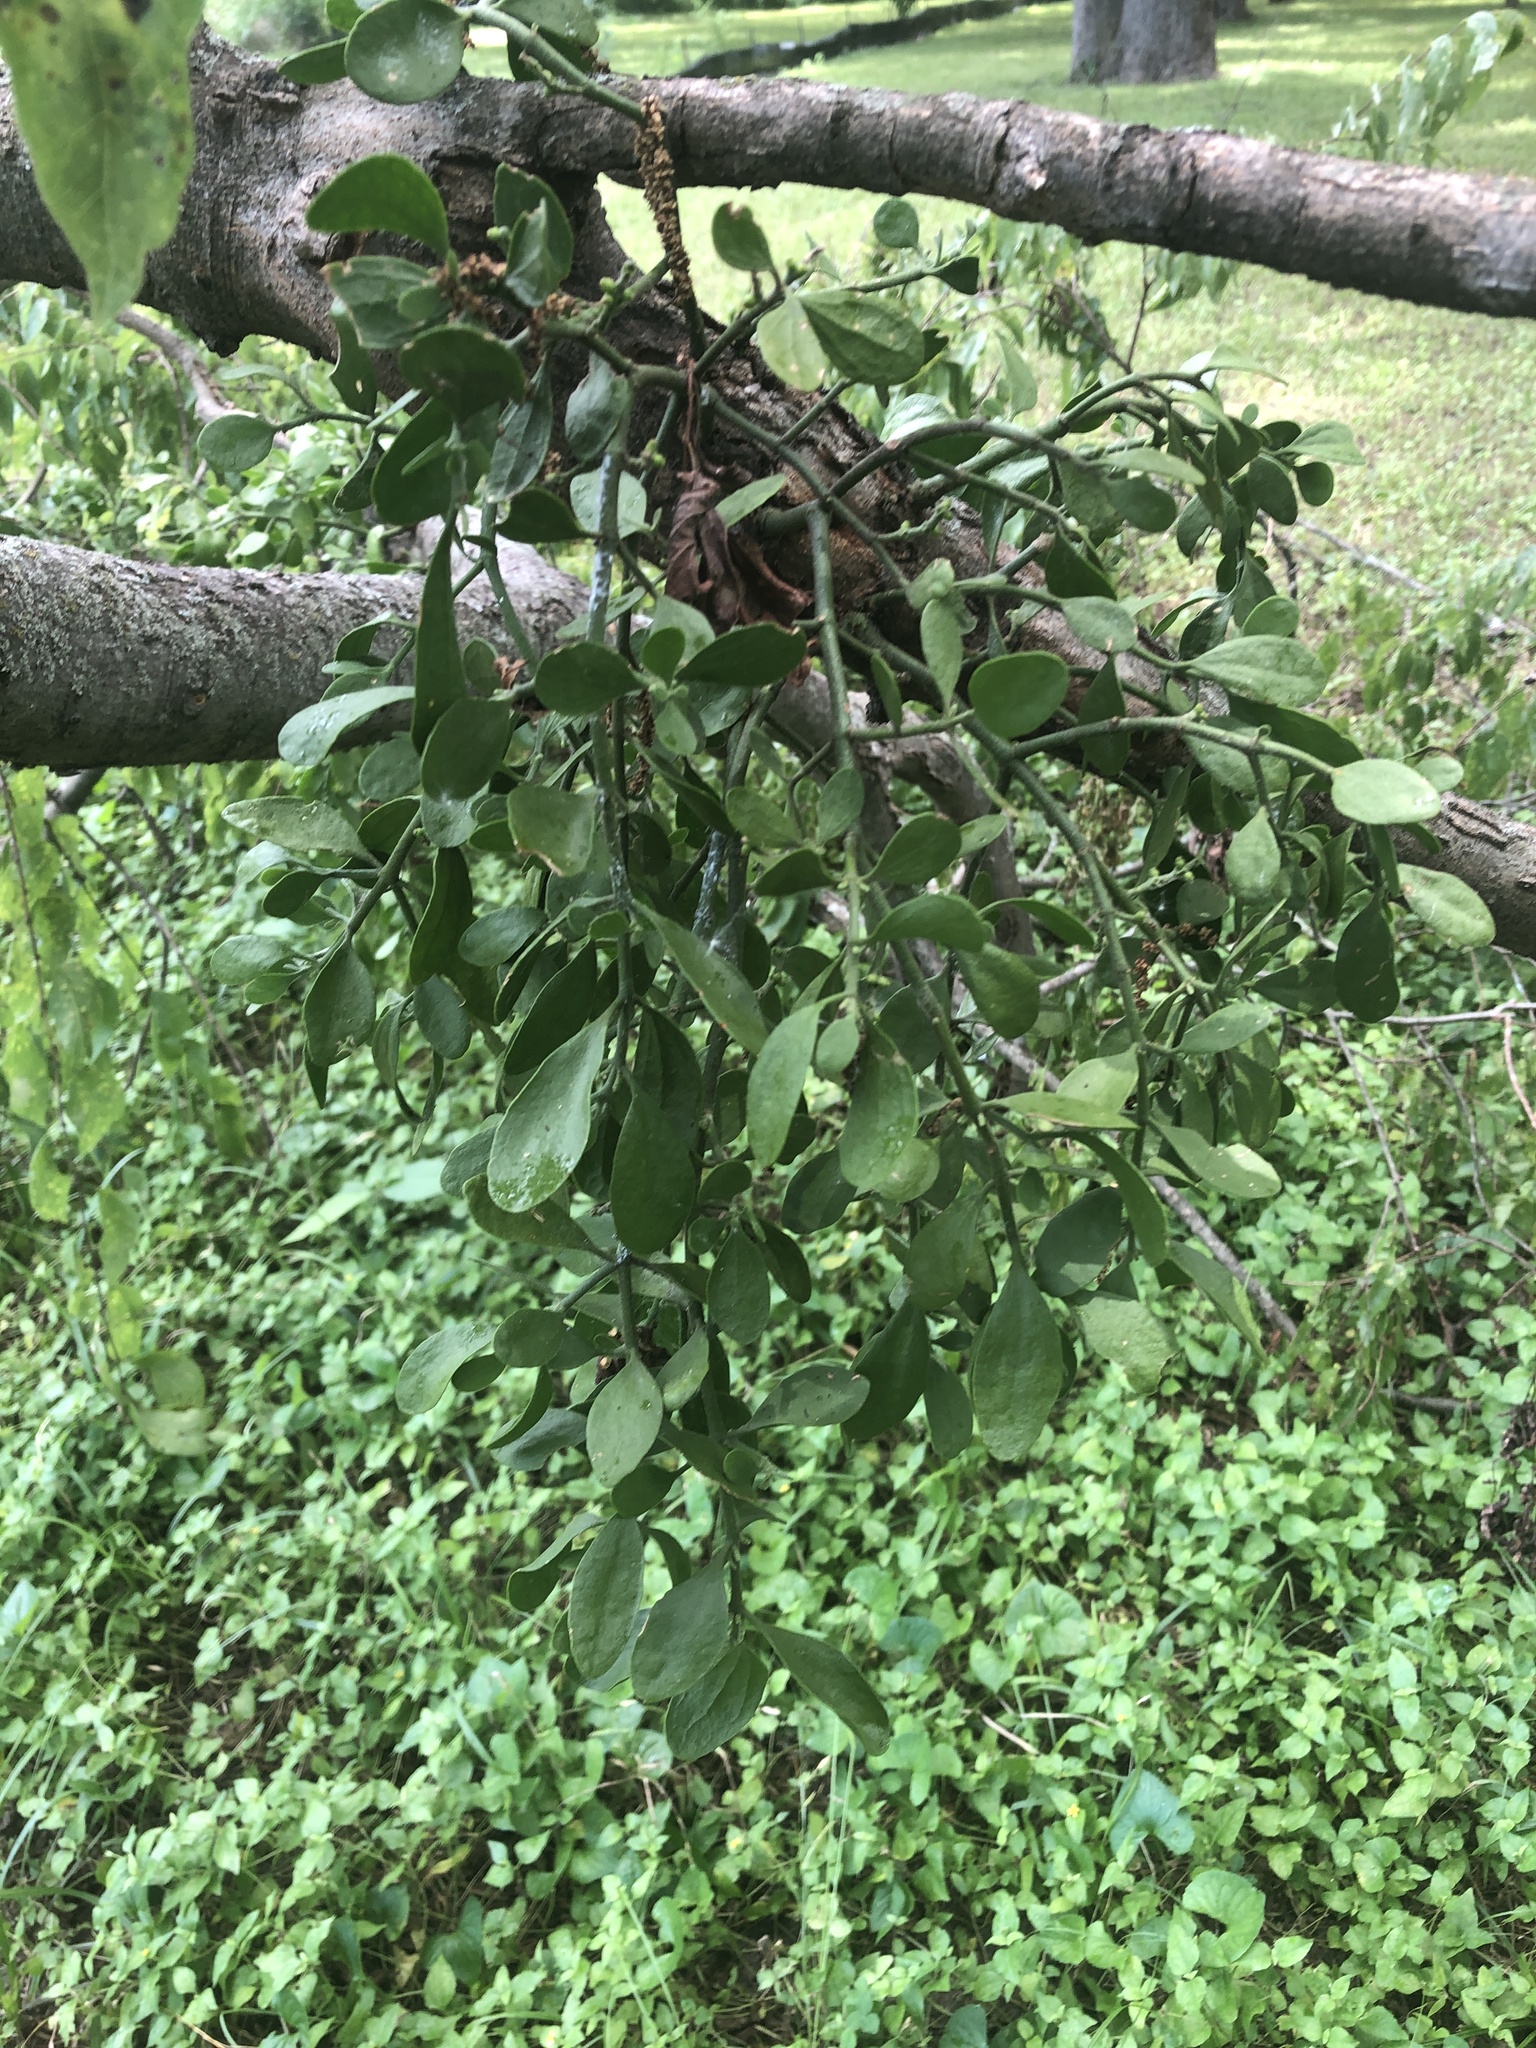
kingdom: Plantae
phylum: Tracheophyta
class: Magnoliopsida
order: Santalales
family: Viscaceae
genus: Phoradendron
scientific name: Phoradendron leucarpum
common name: Pacific mistletoe
